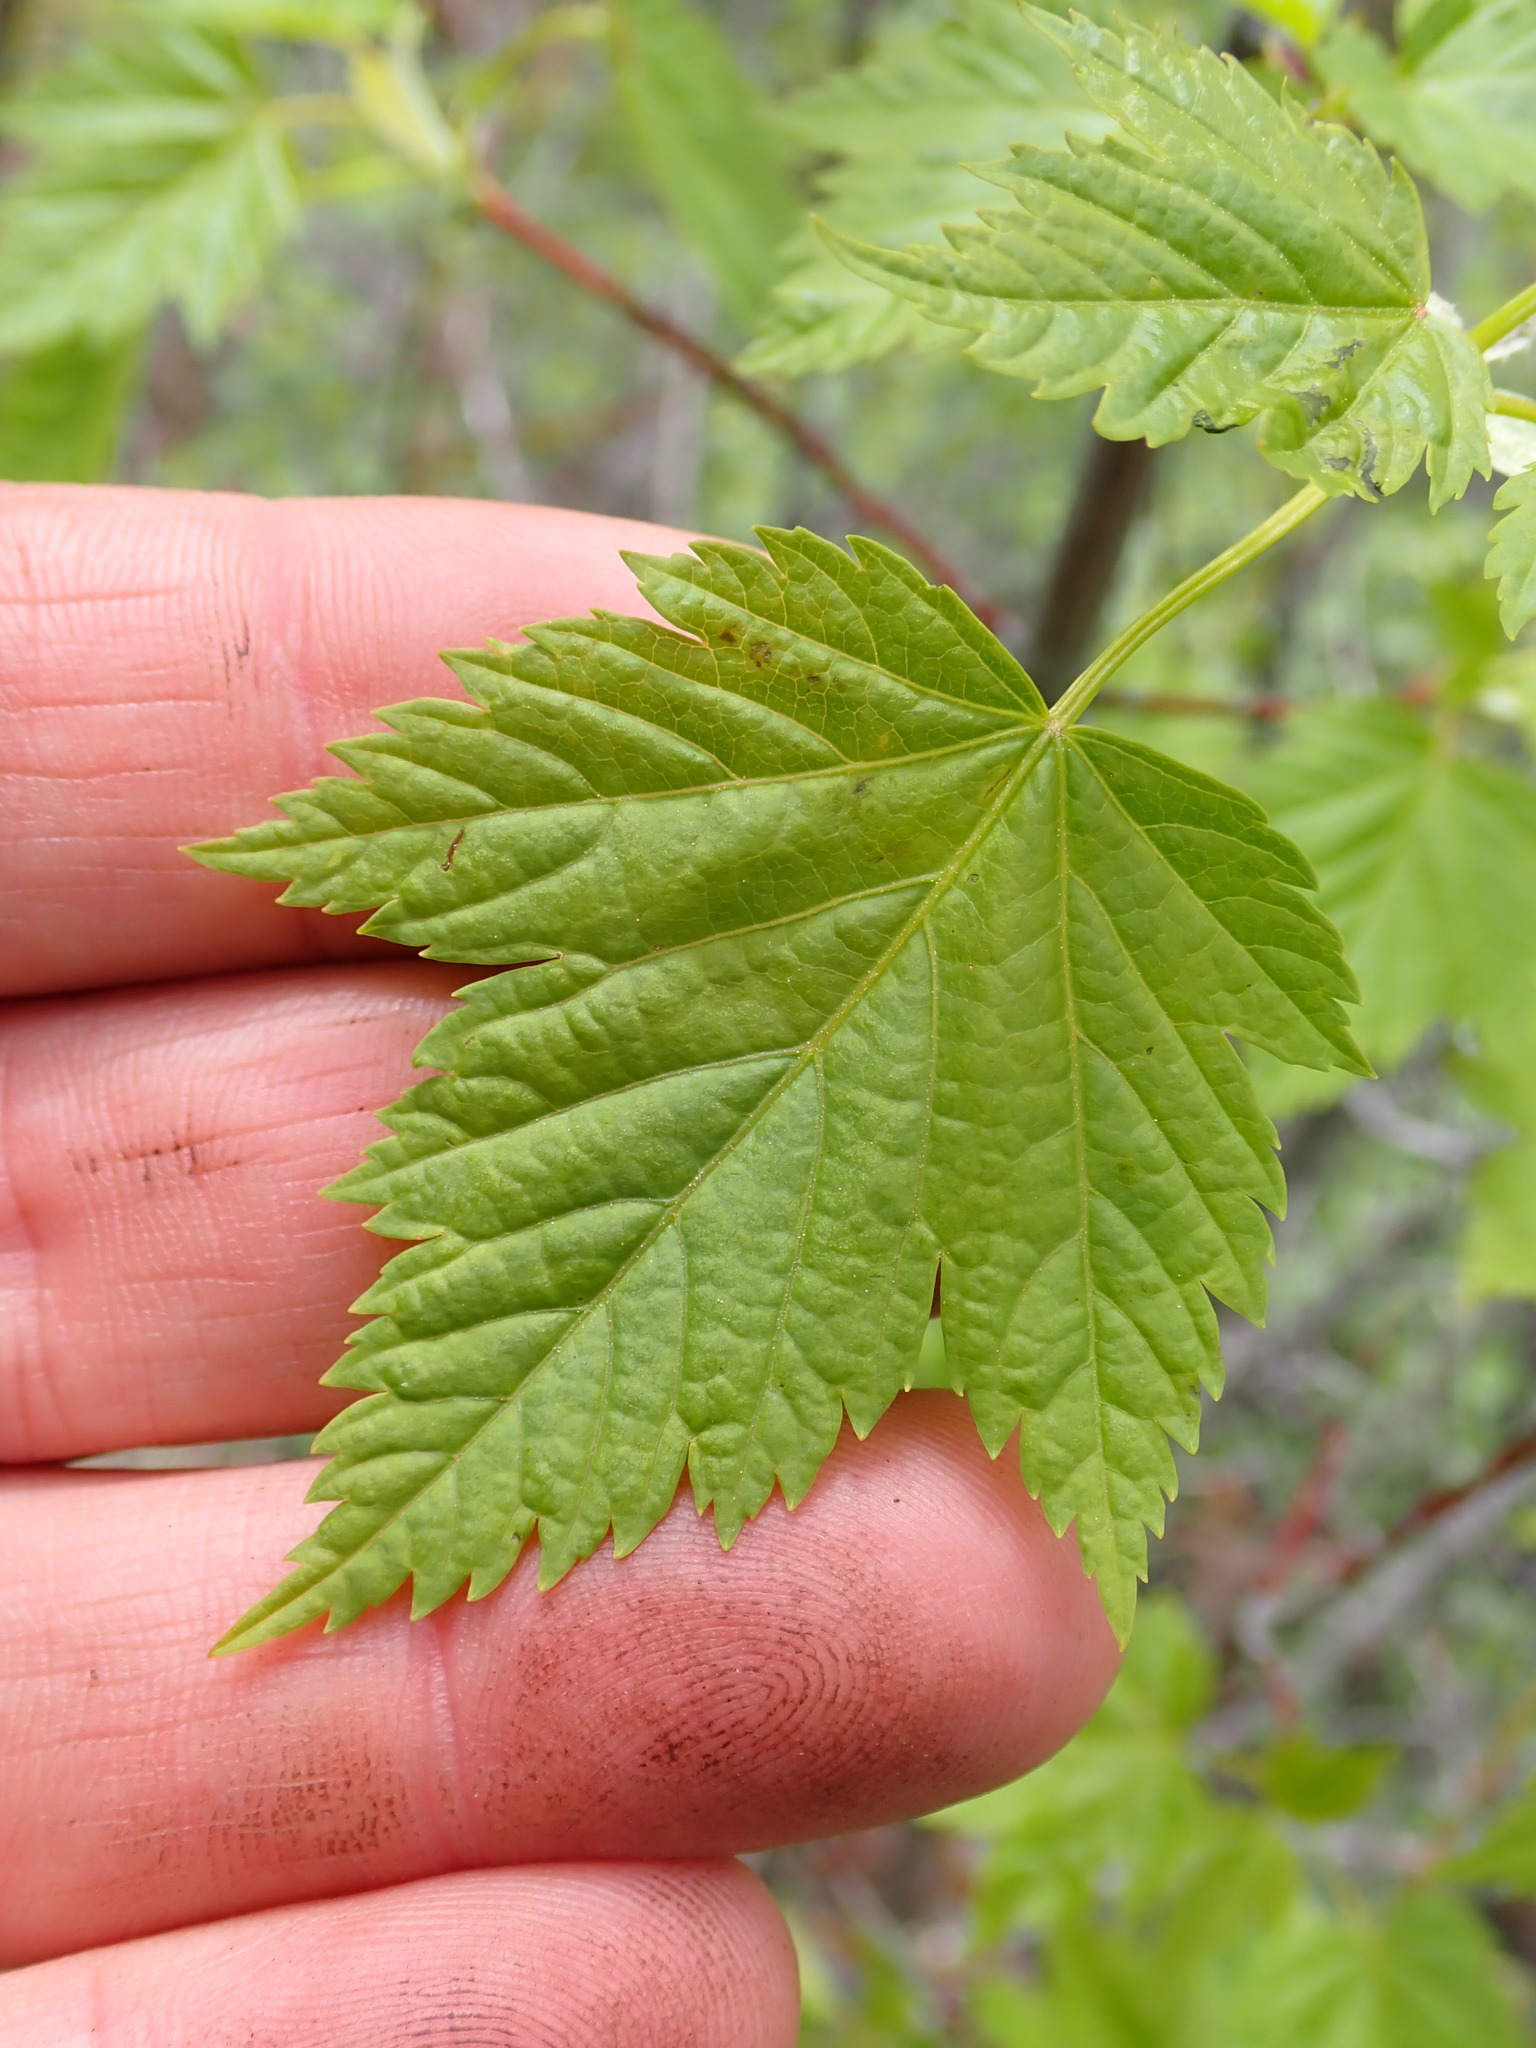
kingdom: Plantae
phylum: Tracheophyta
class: Magnoliopsida
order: Sapindales
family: Sapindaceae
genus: Acer
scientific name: Acer glabrum
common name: Rocky mountain maple
